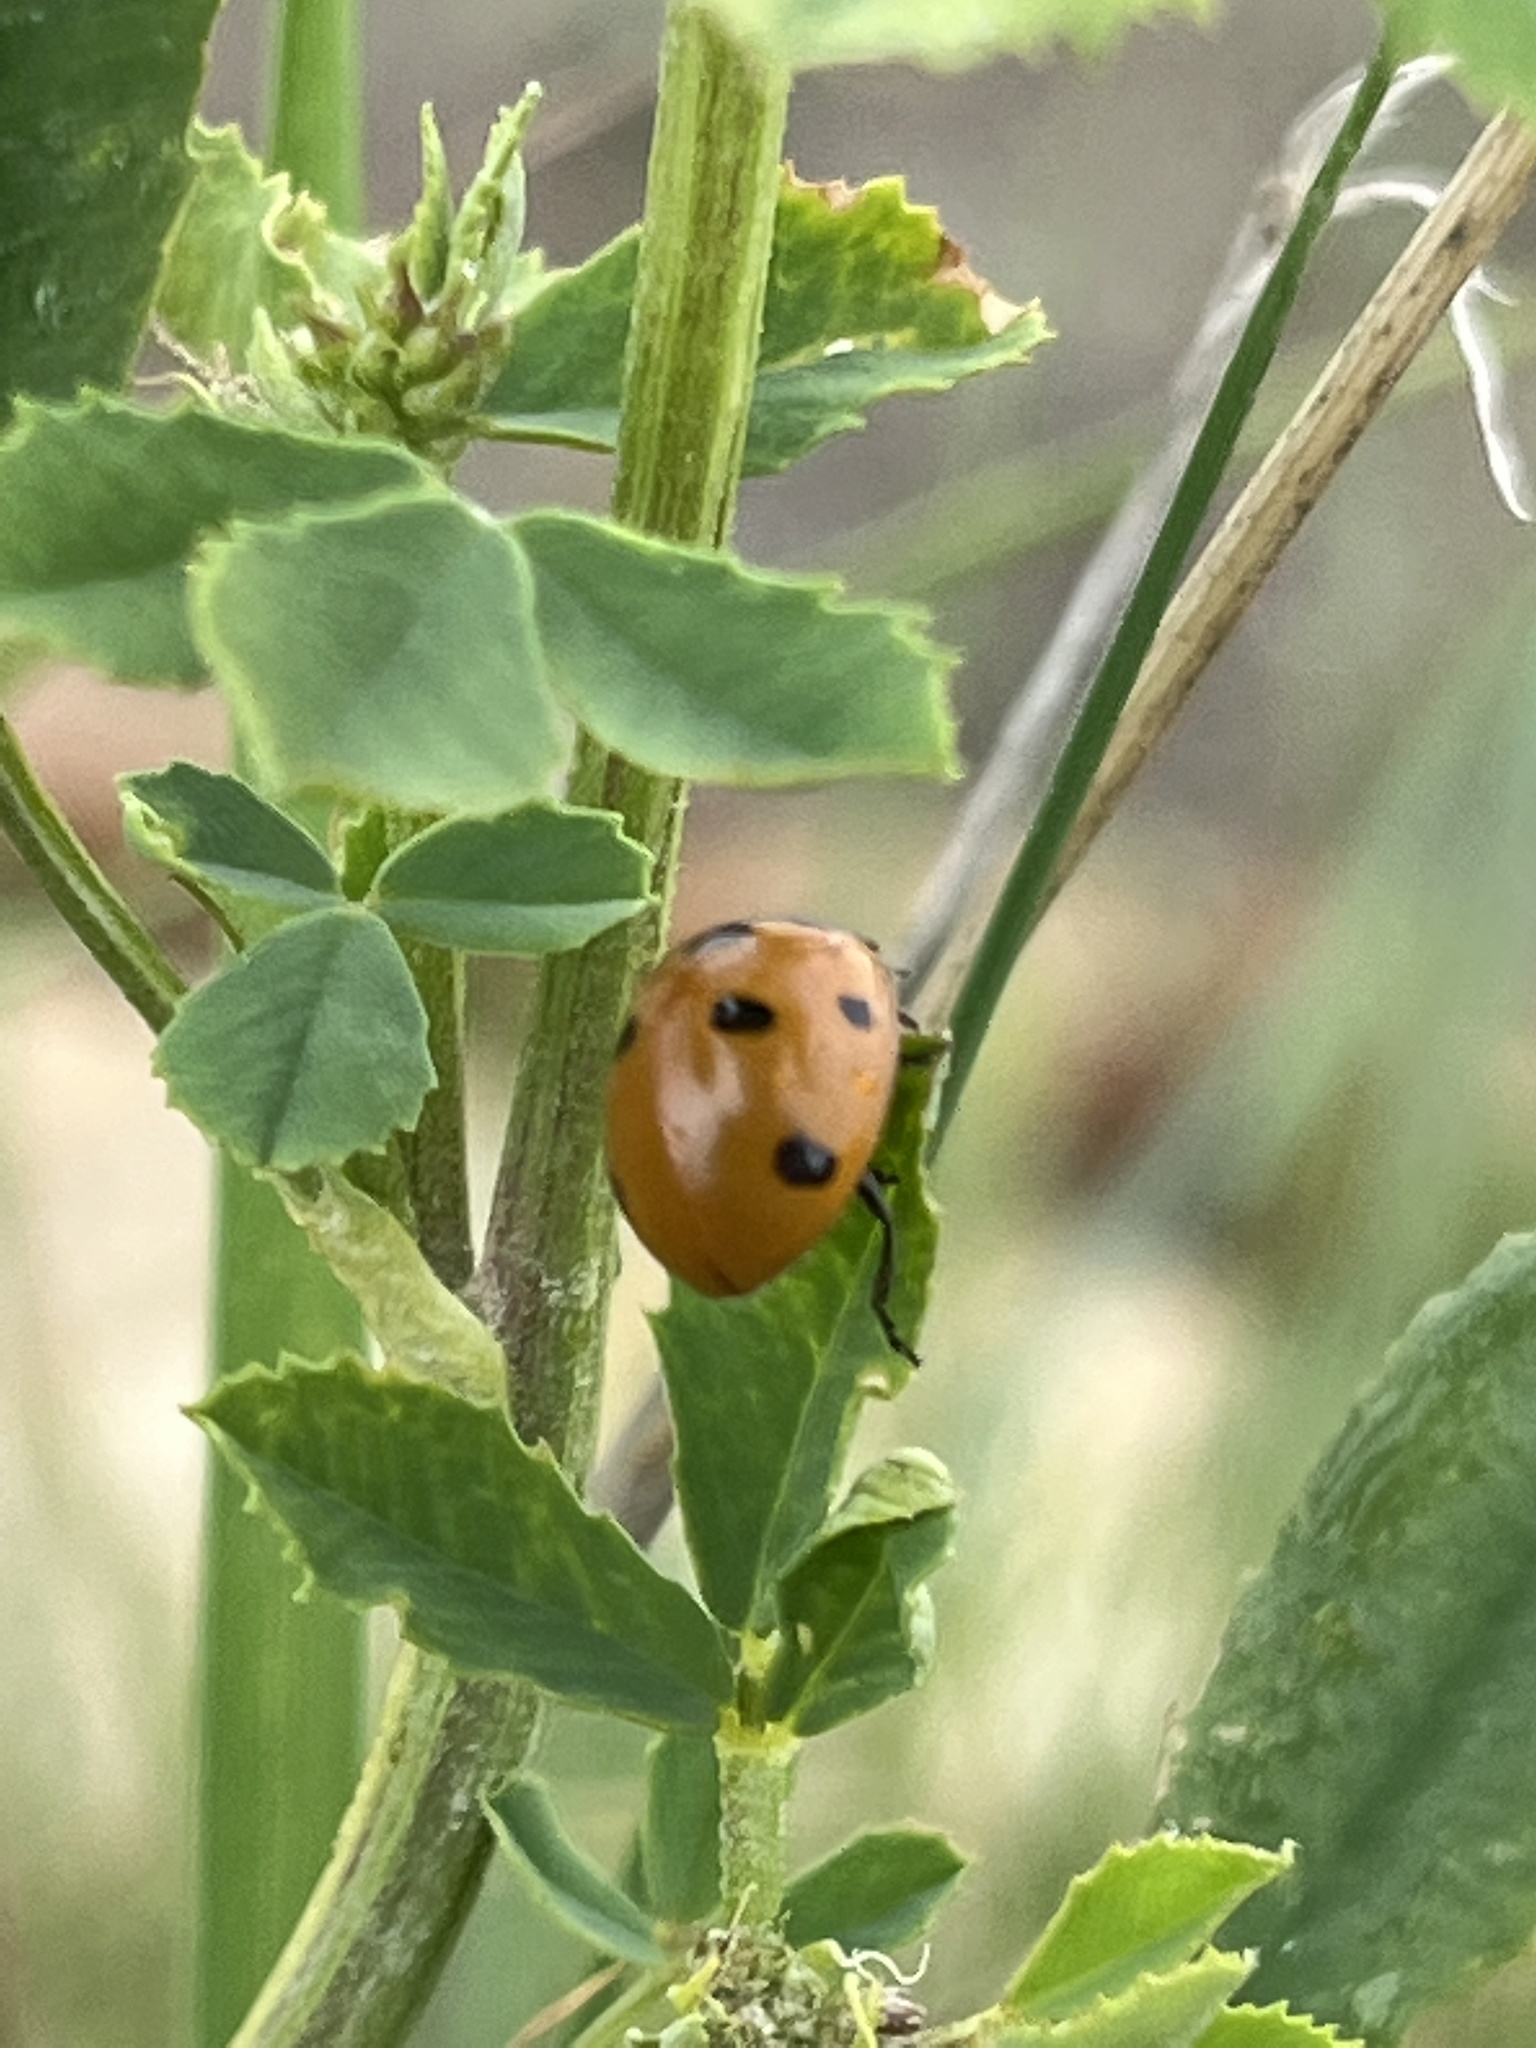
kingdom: Animalia
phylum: Arthropoda
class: Insecta
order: Coleoptera
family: Coccinellidae
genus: Coccinella
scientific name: Coccinella septempunctata
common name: Sevenspotted lady beetle
